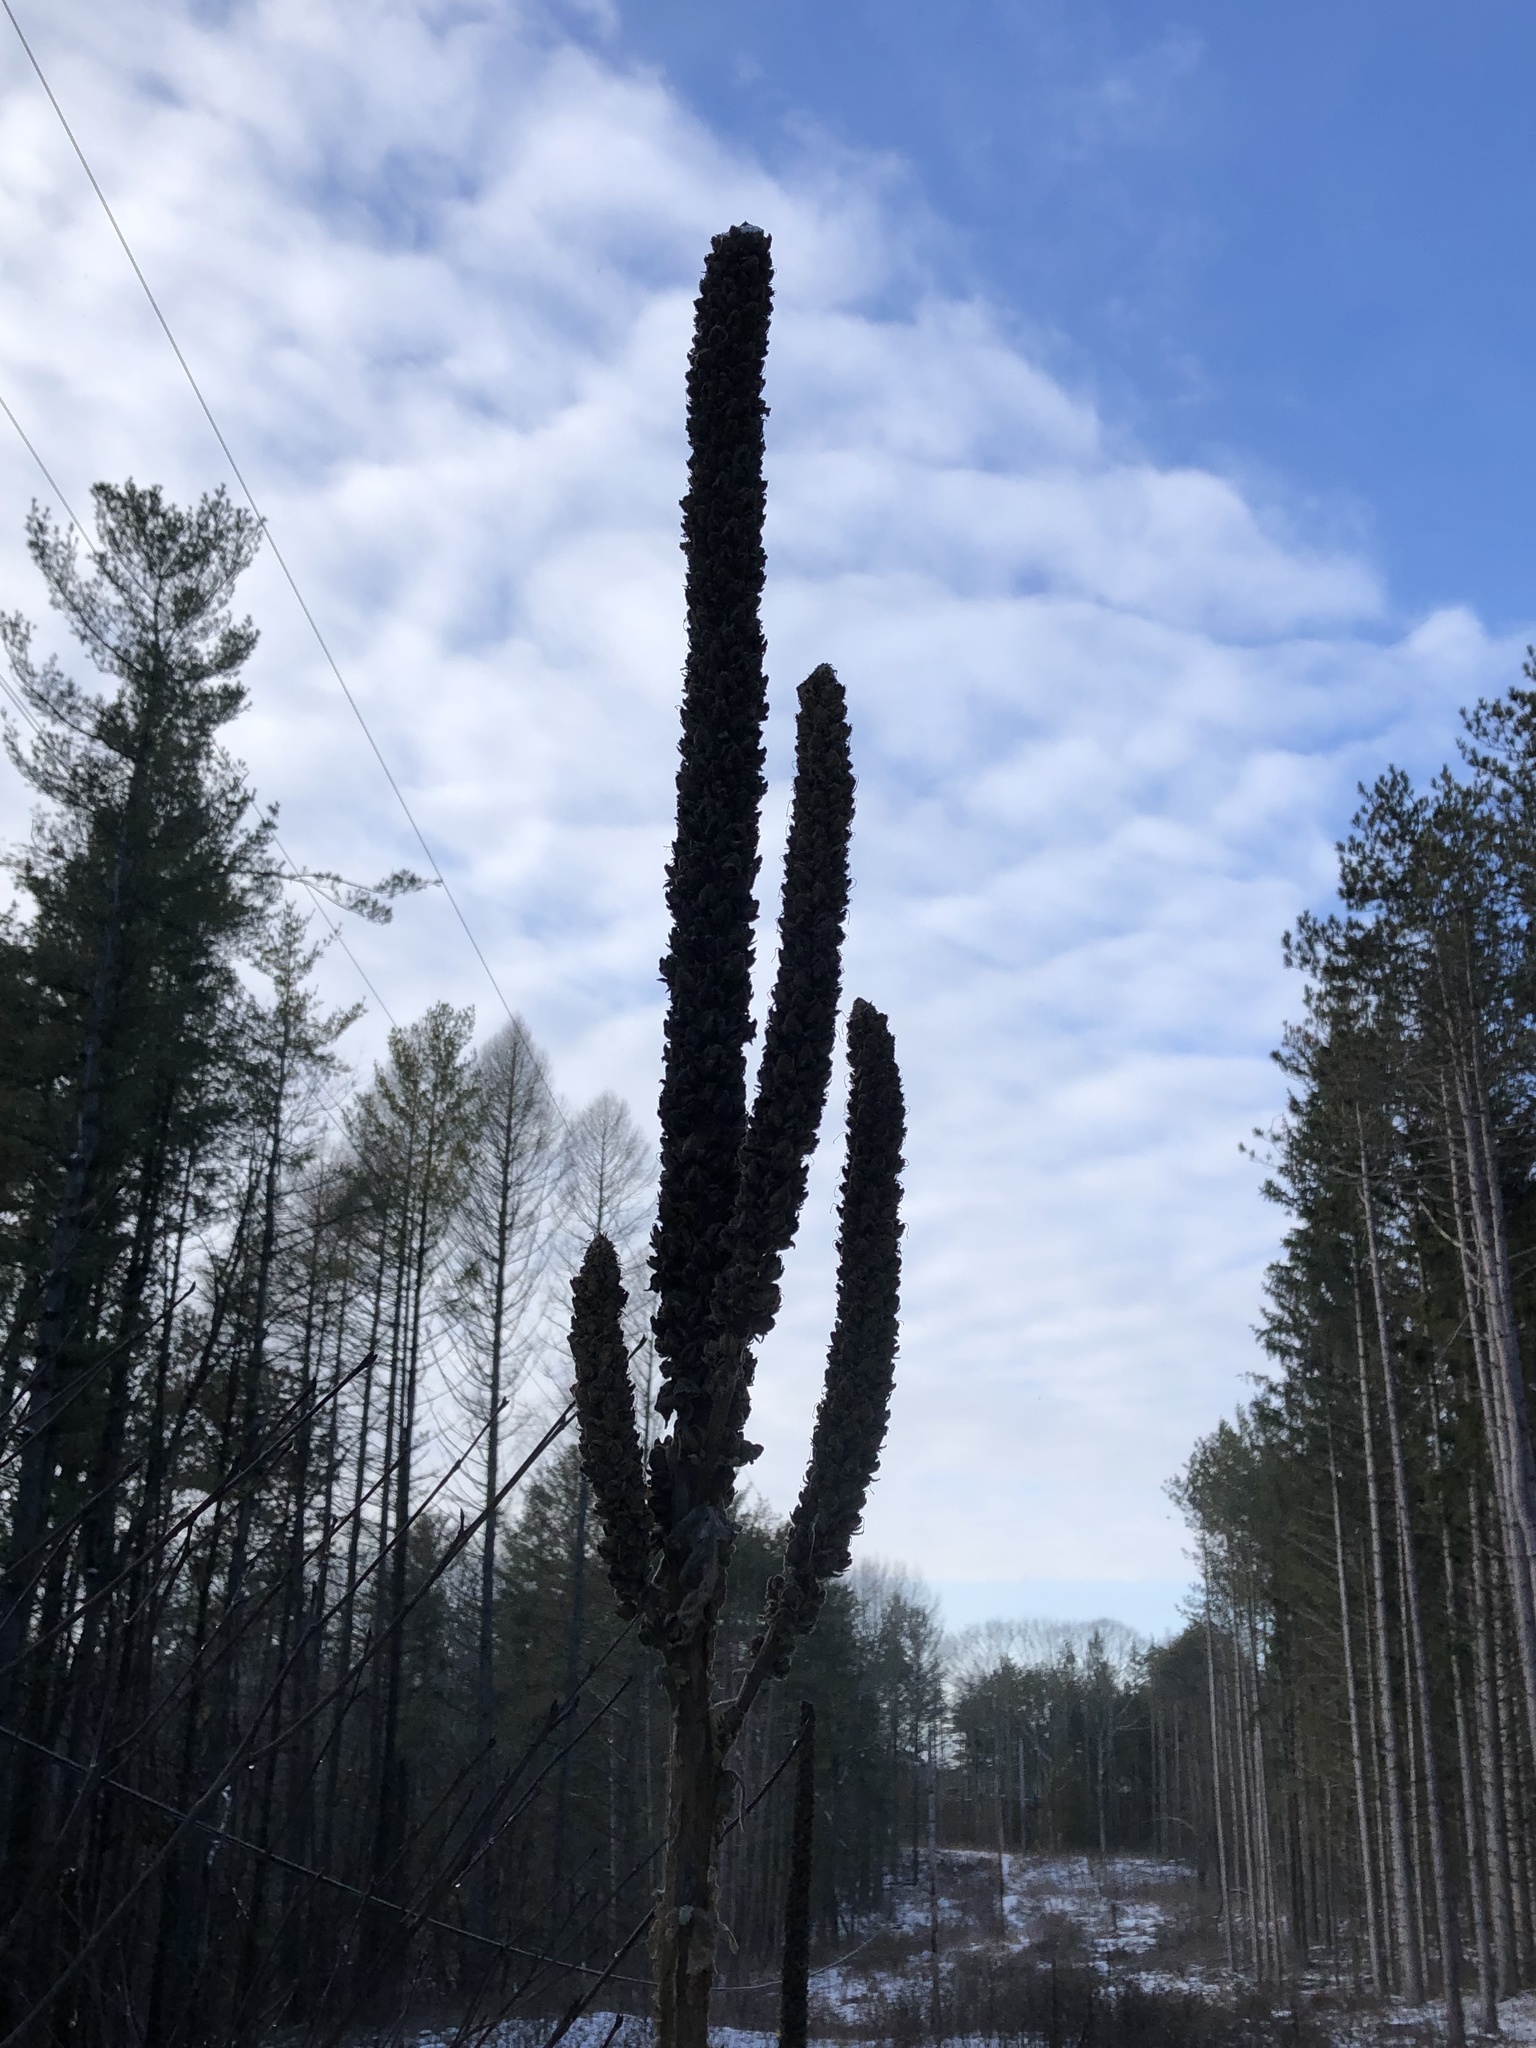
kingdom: Plantae
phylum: Tracheophyta
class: Magnoliopsida
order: Lamiales
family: Scrophulariaceae
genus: Verbascum
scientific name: Verbascum thapsus
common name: Common mullein
